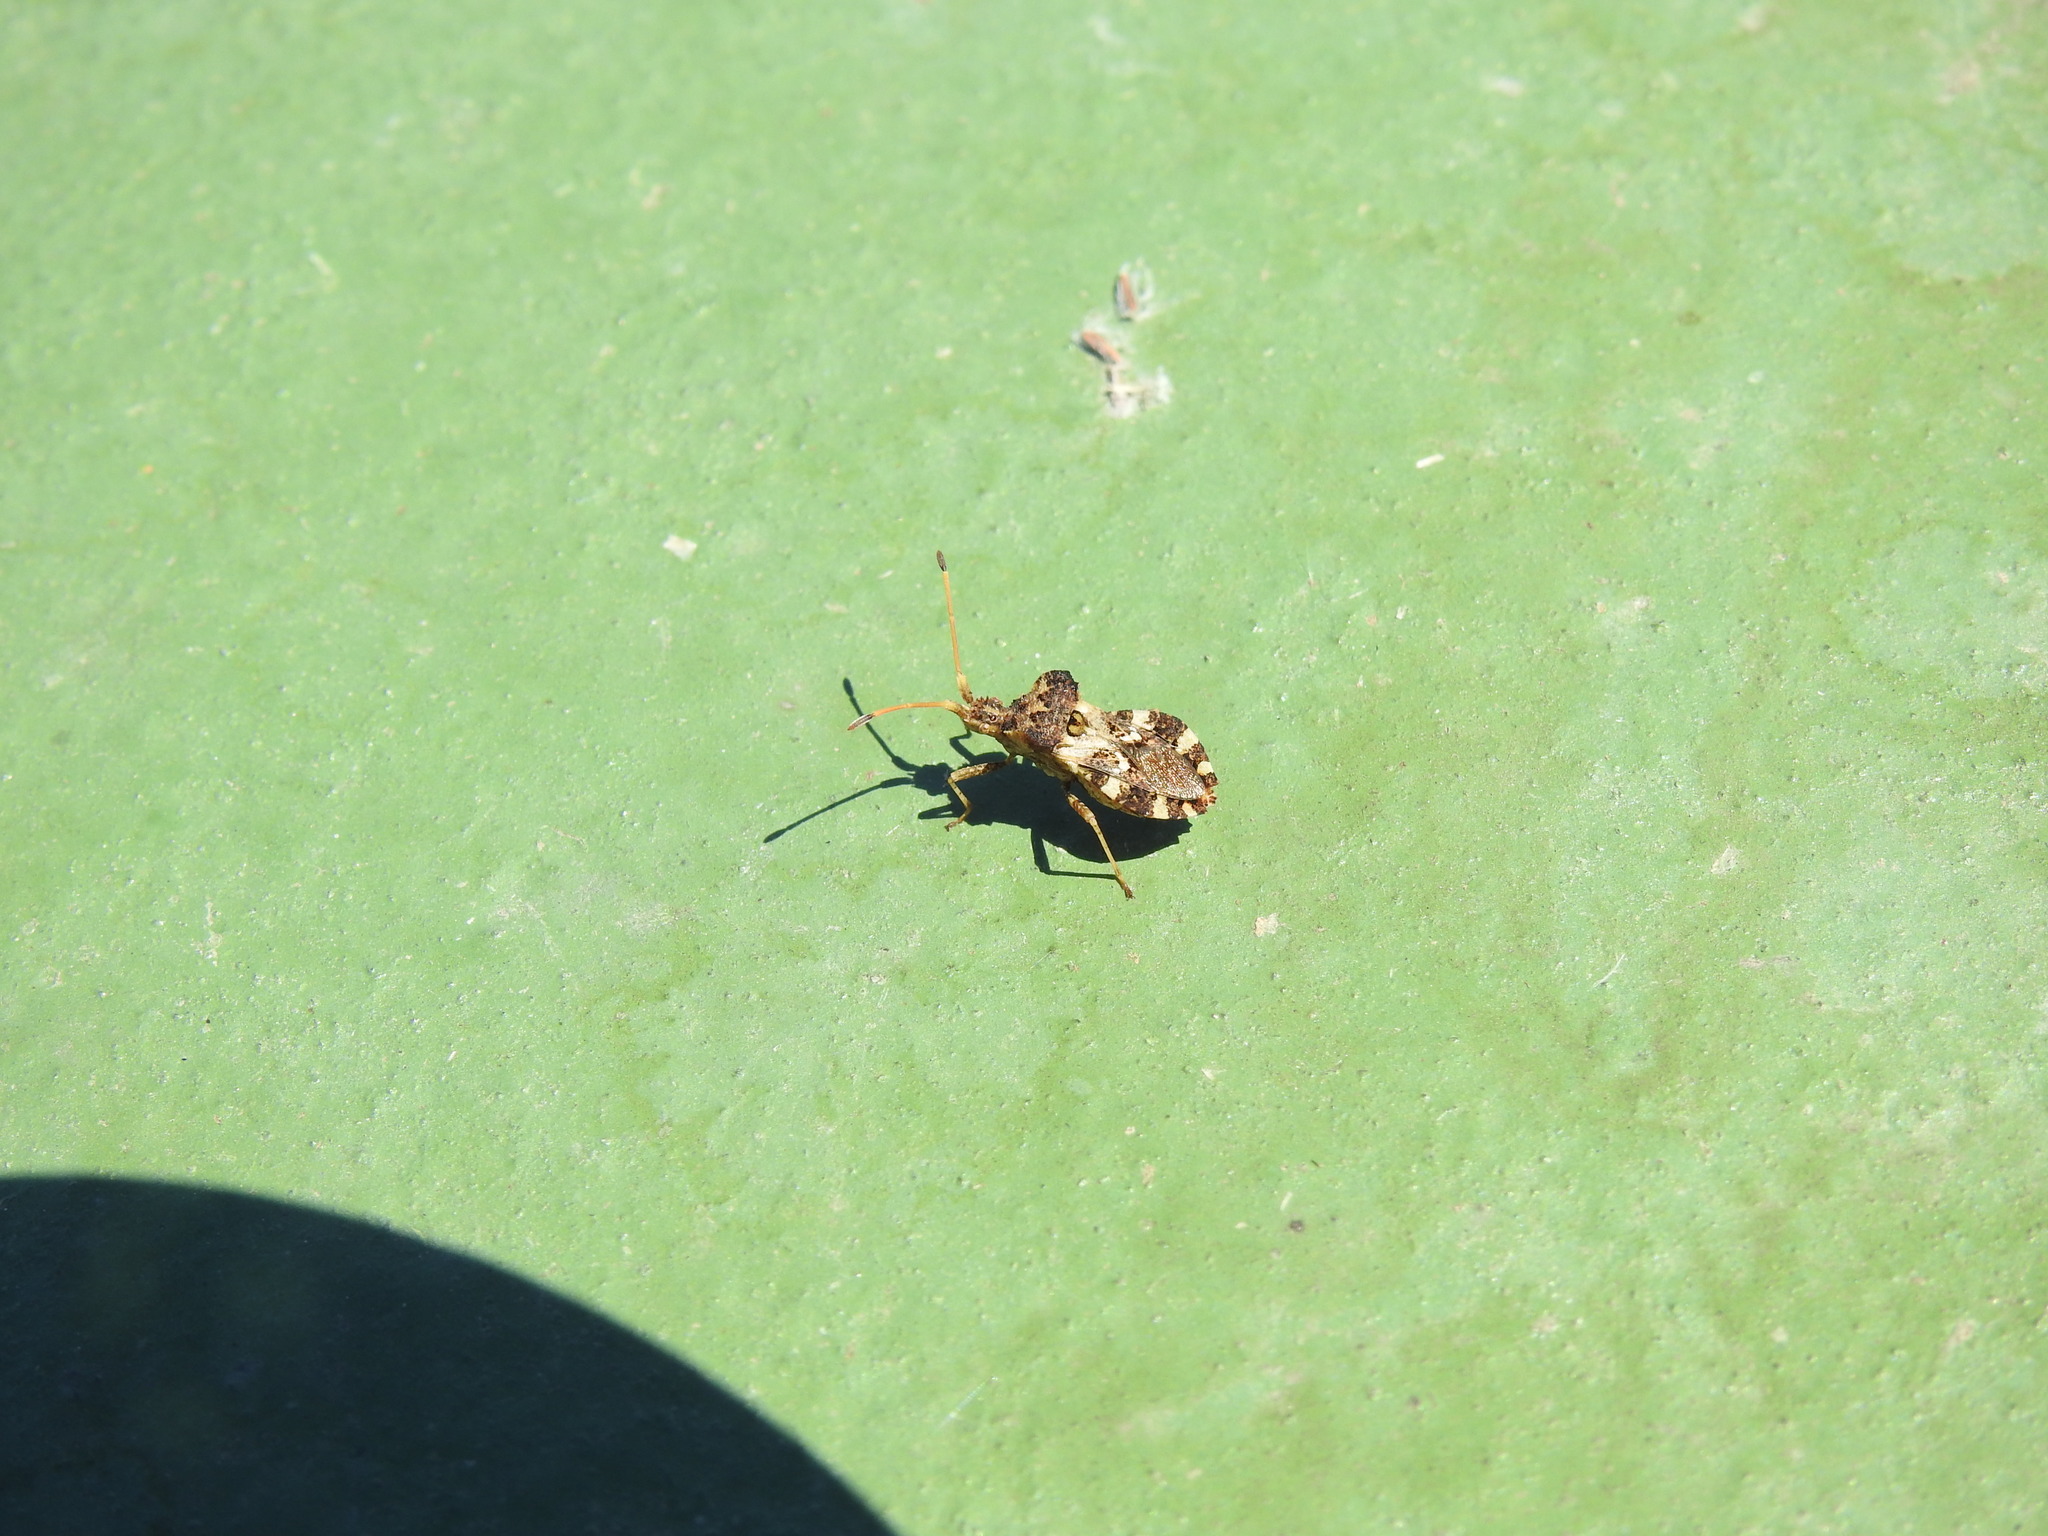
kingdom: Animalia
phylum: Arthropoda
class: Insecta
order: Hemiptera
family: Coreidae
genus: Centrocoris
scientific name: Centrocoris variegatus
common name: Leaf-footed bug
